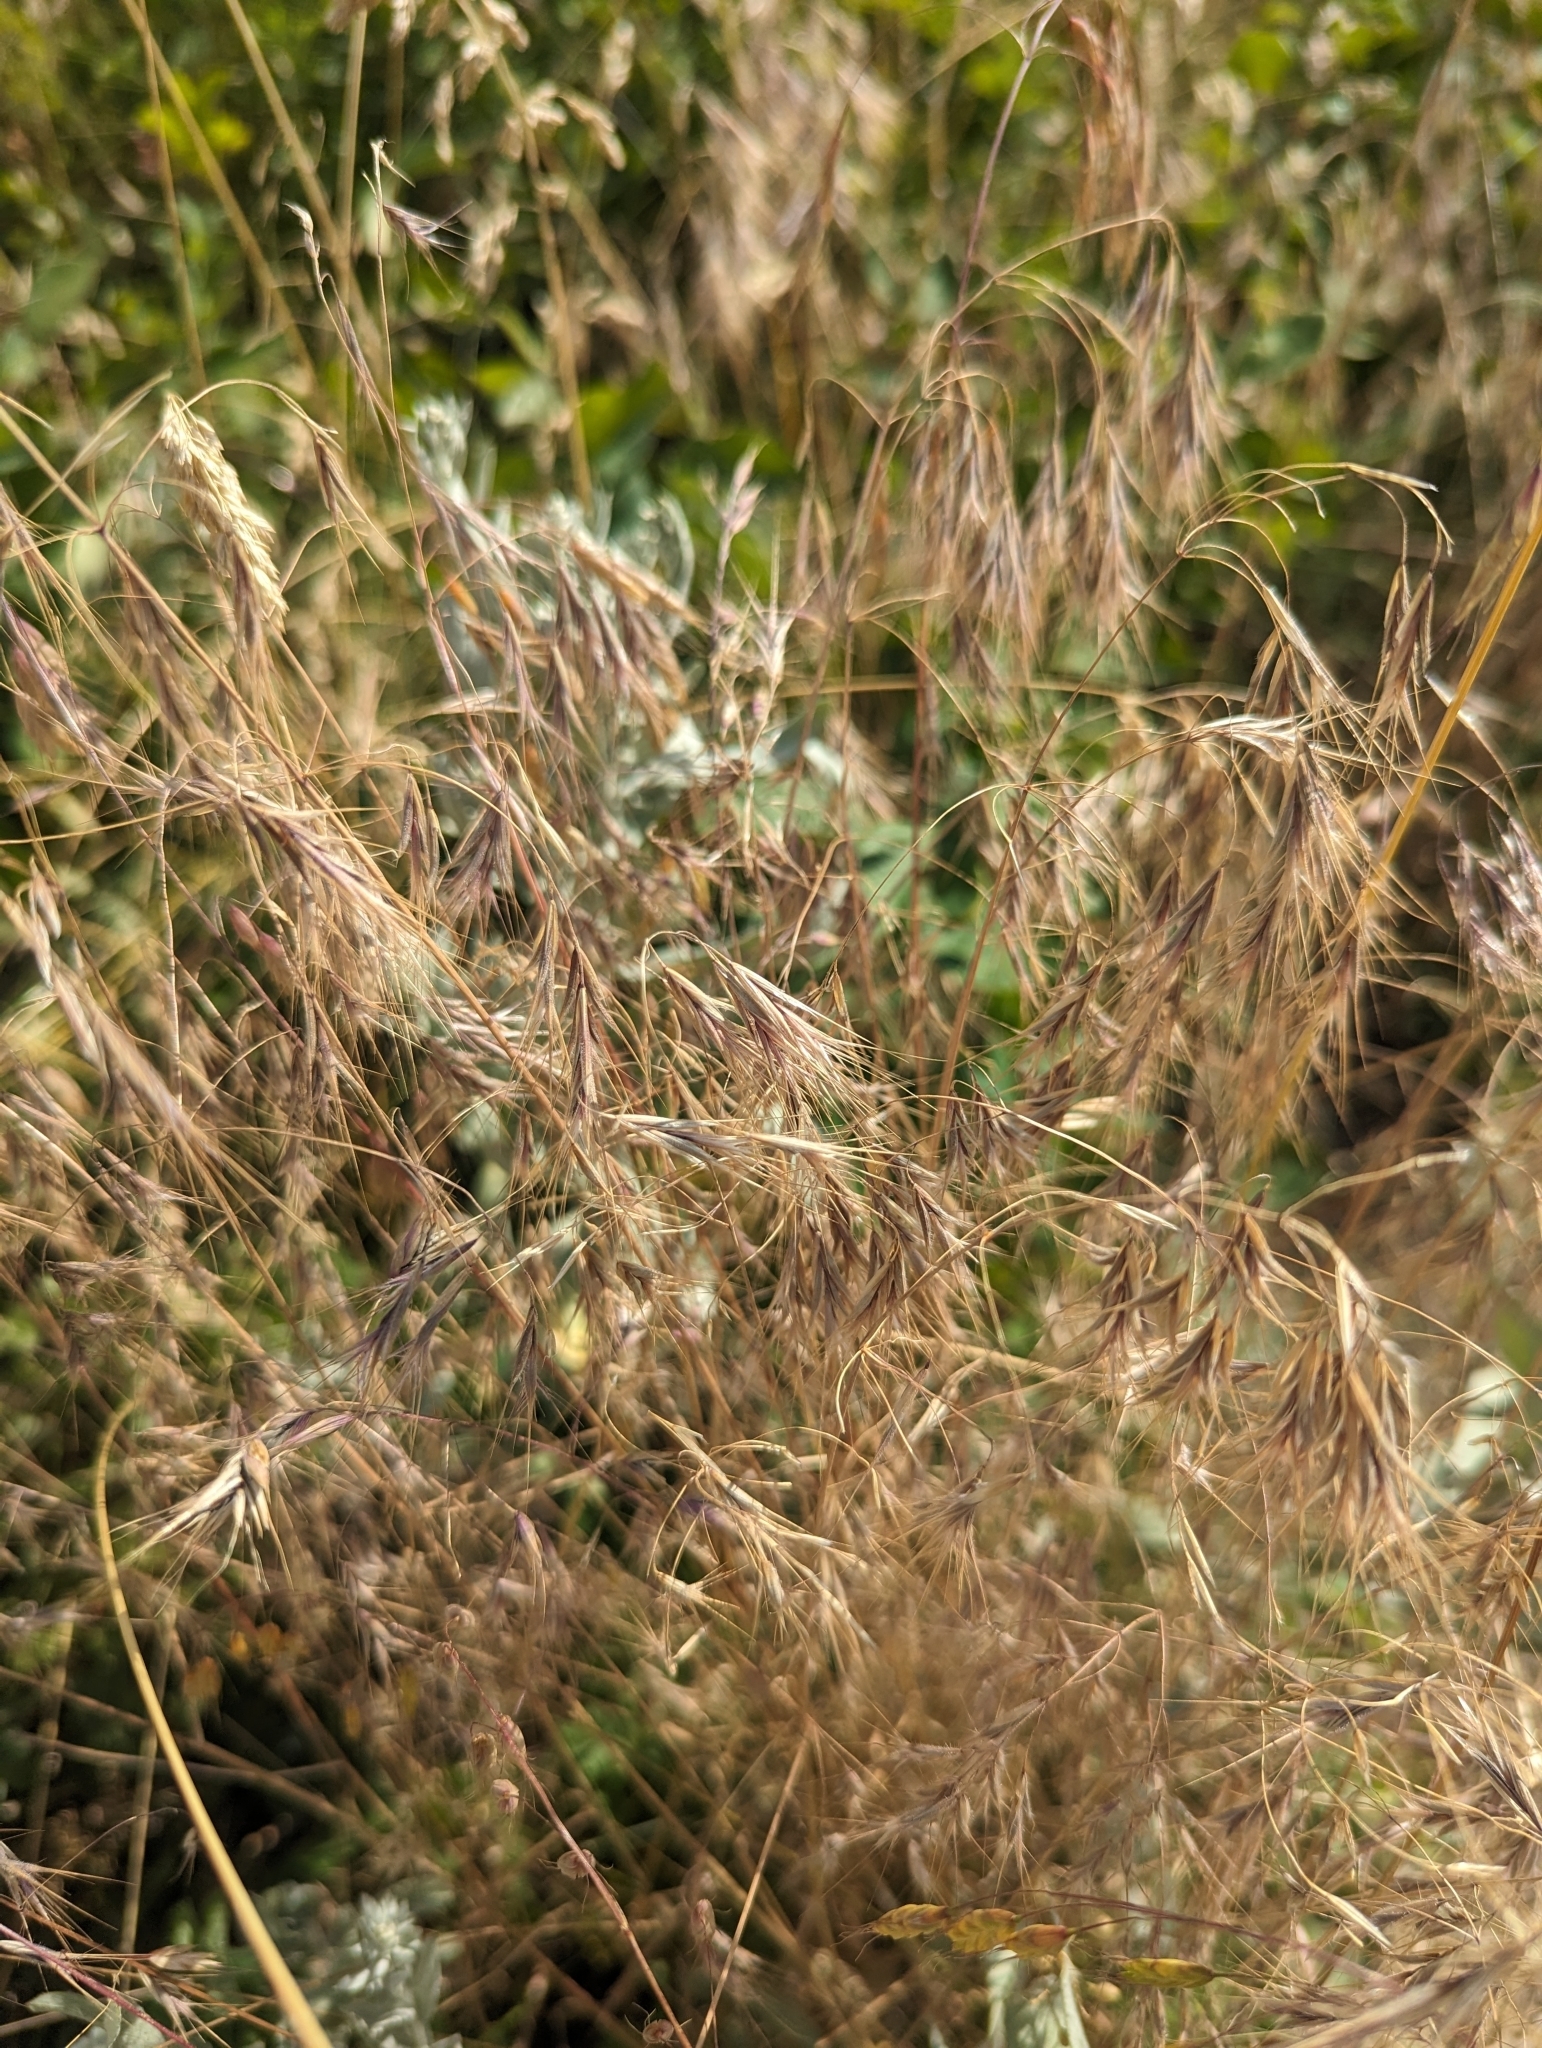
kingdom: Plantae
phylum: Tracheophyta
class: Liliopsida
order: Poales
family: Poaceae
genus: Bromus
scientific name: Bromus tectorum
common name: Cheatgrass
